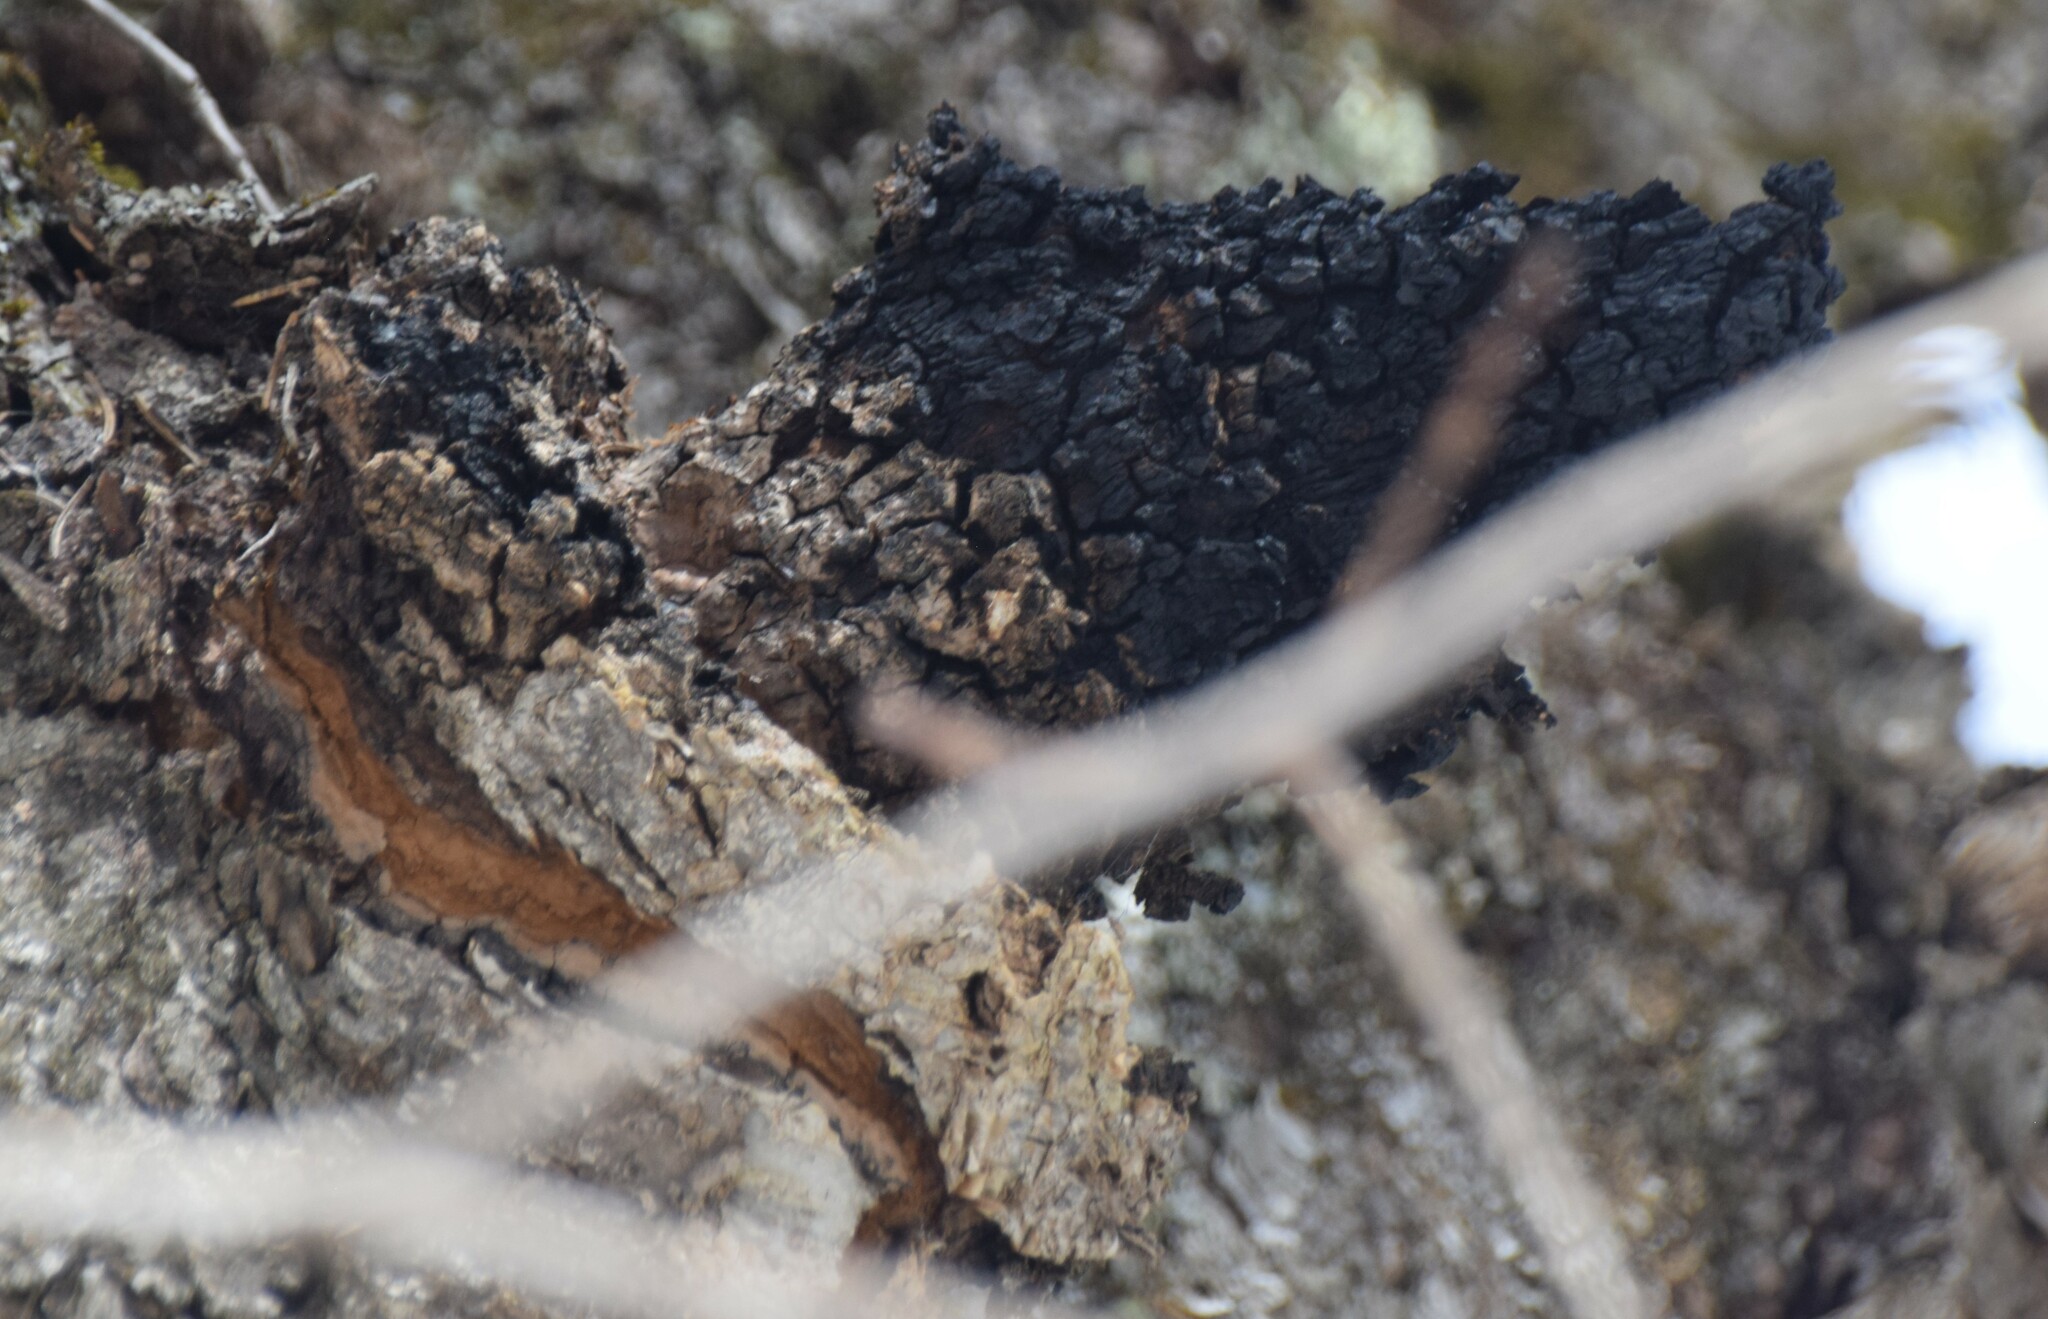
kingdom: Fungi
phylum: Basidiomycota
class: Agaricomycetes
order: Hymenochaetales
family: Hymenochaetaceae
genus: Inonotus
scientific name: Inonotus obliquus
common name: Chaga
